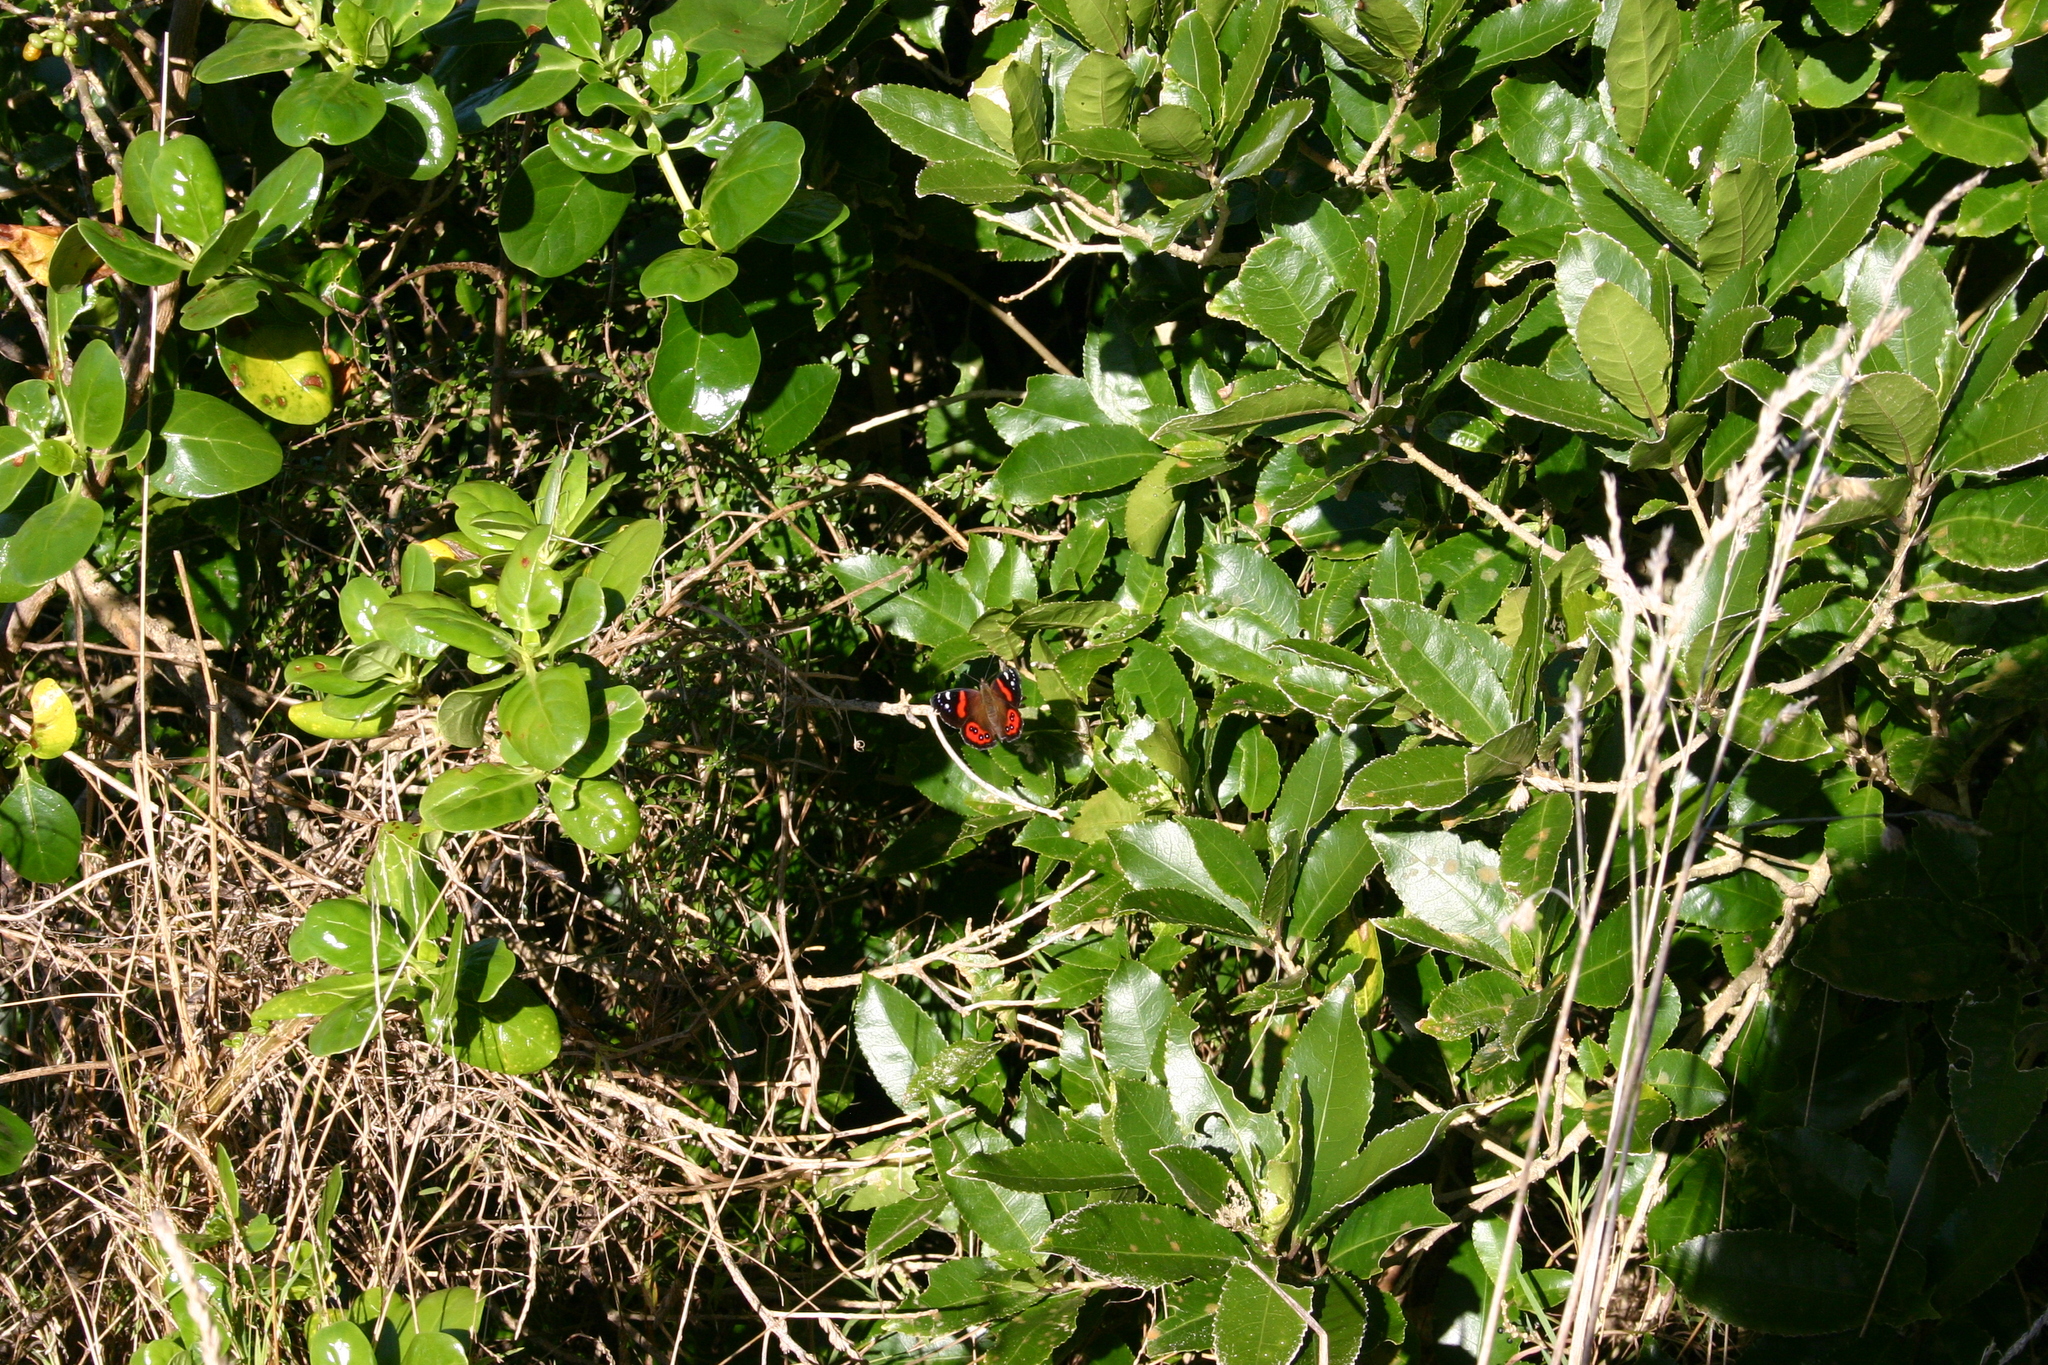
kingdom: Animalia
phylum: Arthropoda
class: Insecta
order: Lepidoptera
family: Nymphalidae
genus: Vanessa
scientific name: Vanessa gonerilla
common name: New zealand red admiral
